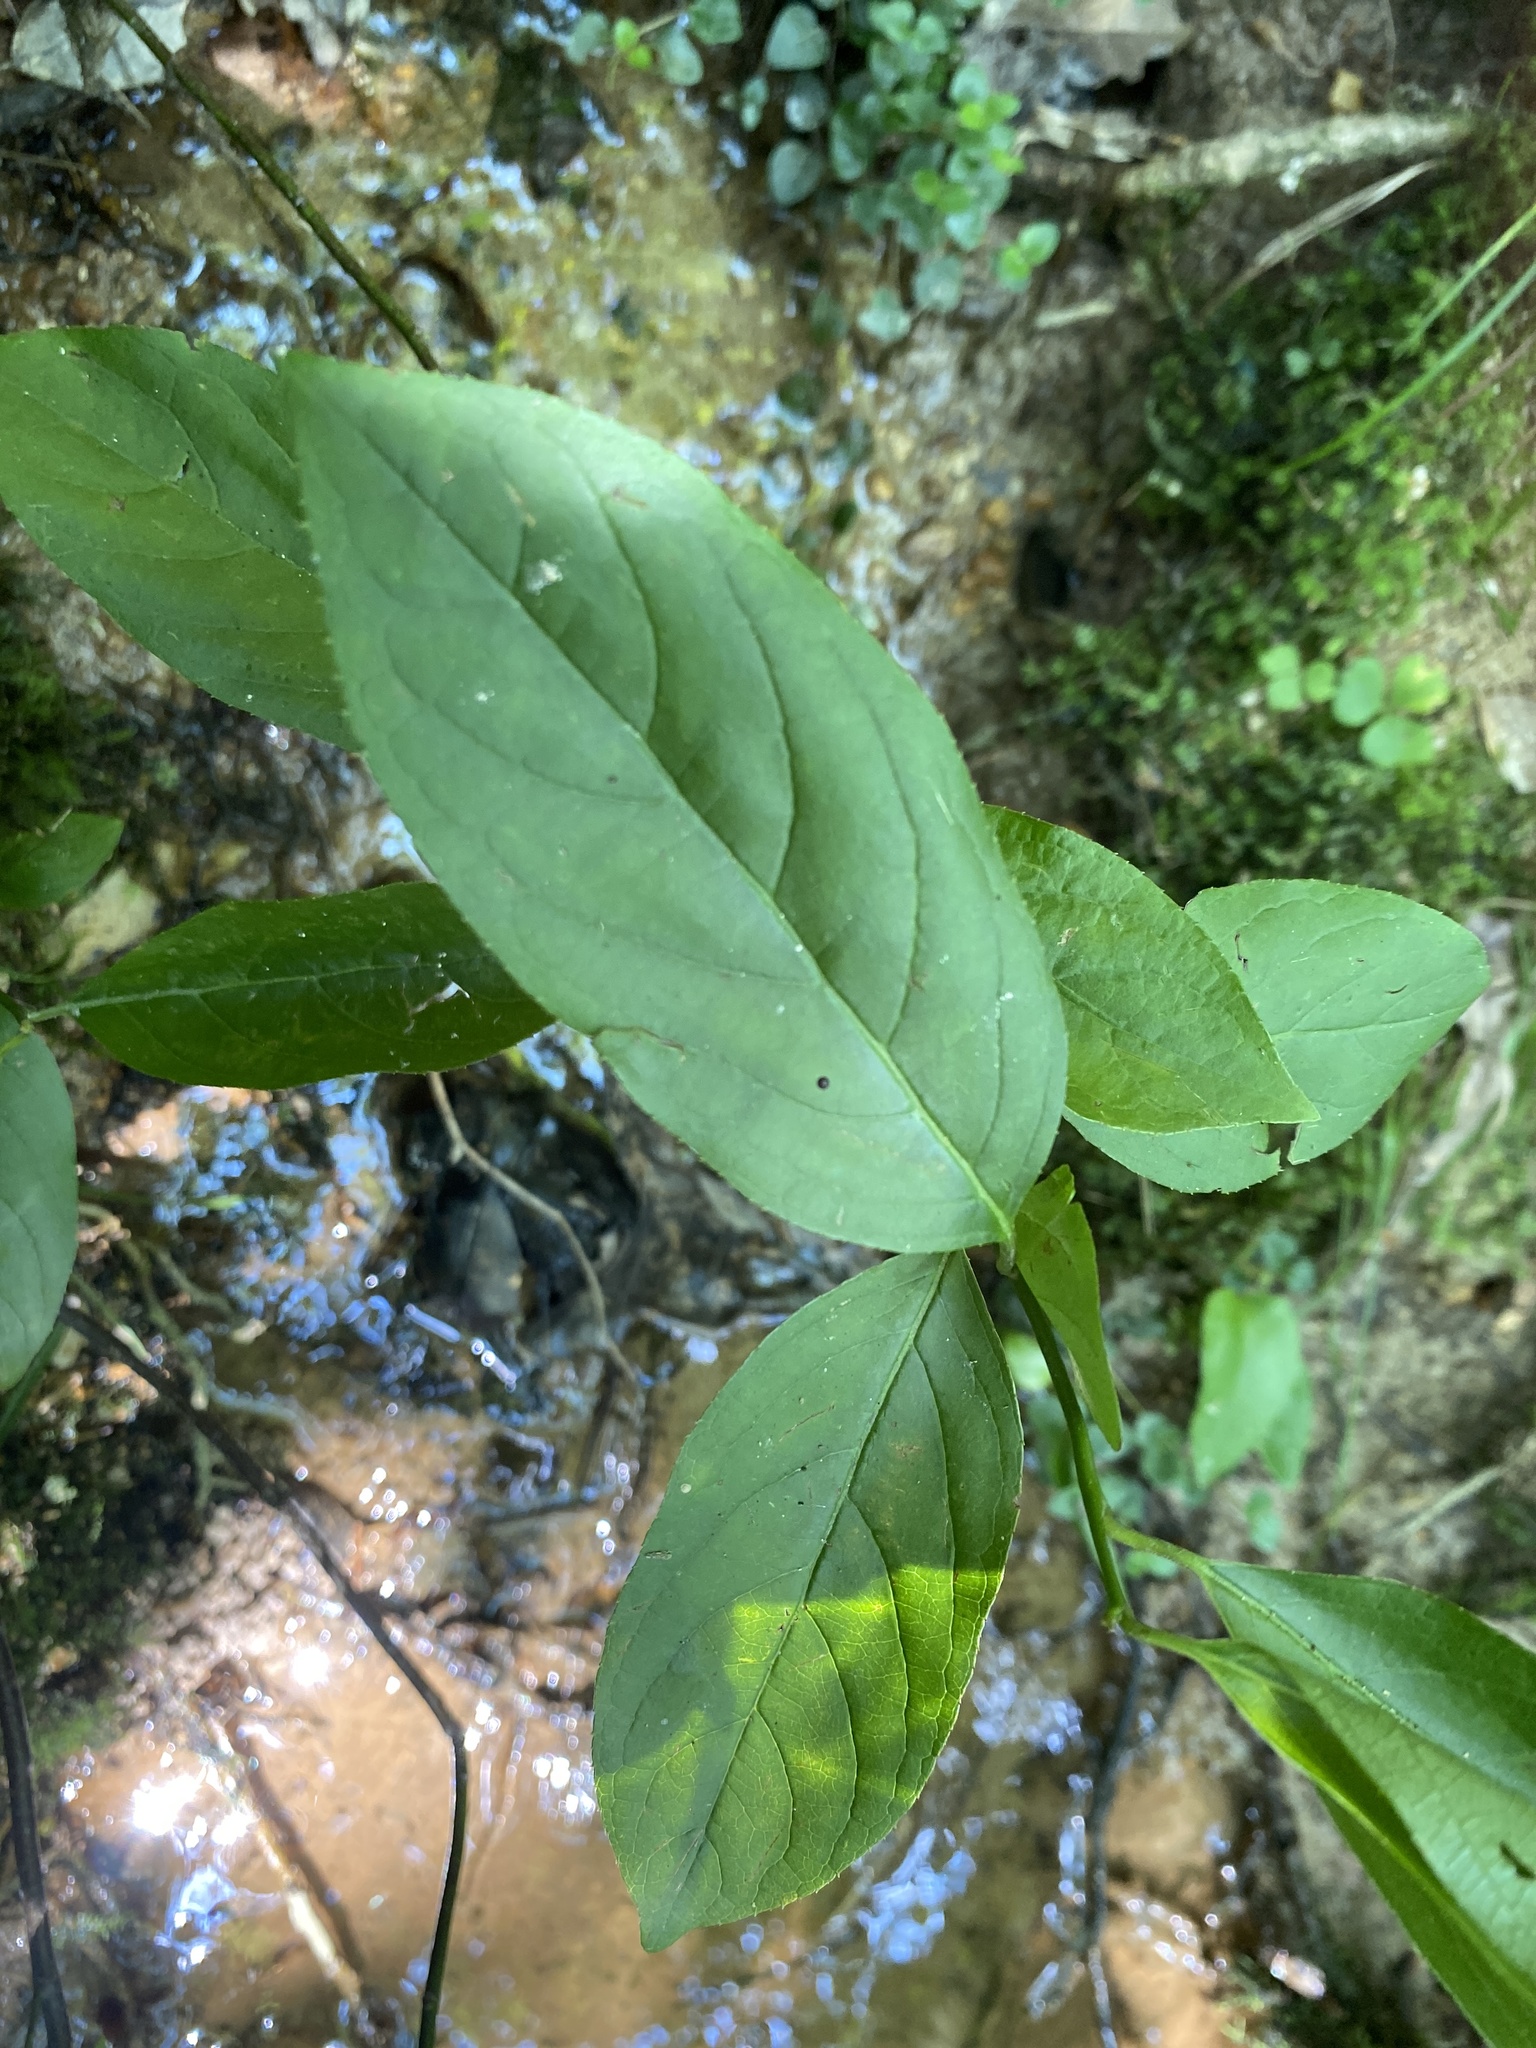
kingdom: Plantae
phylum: Tracheophyta
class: Magnoliopsida
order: Saxifragales
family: Iteaceae
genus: Itea
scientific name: Itea virginica
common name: Sweetspire
